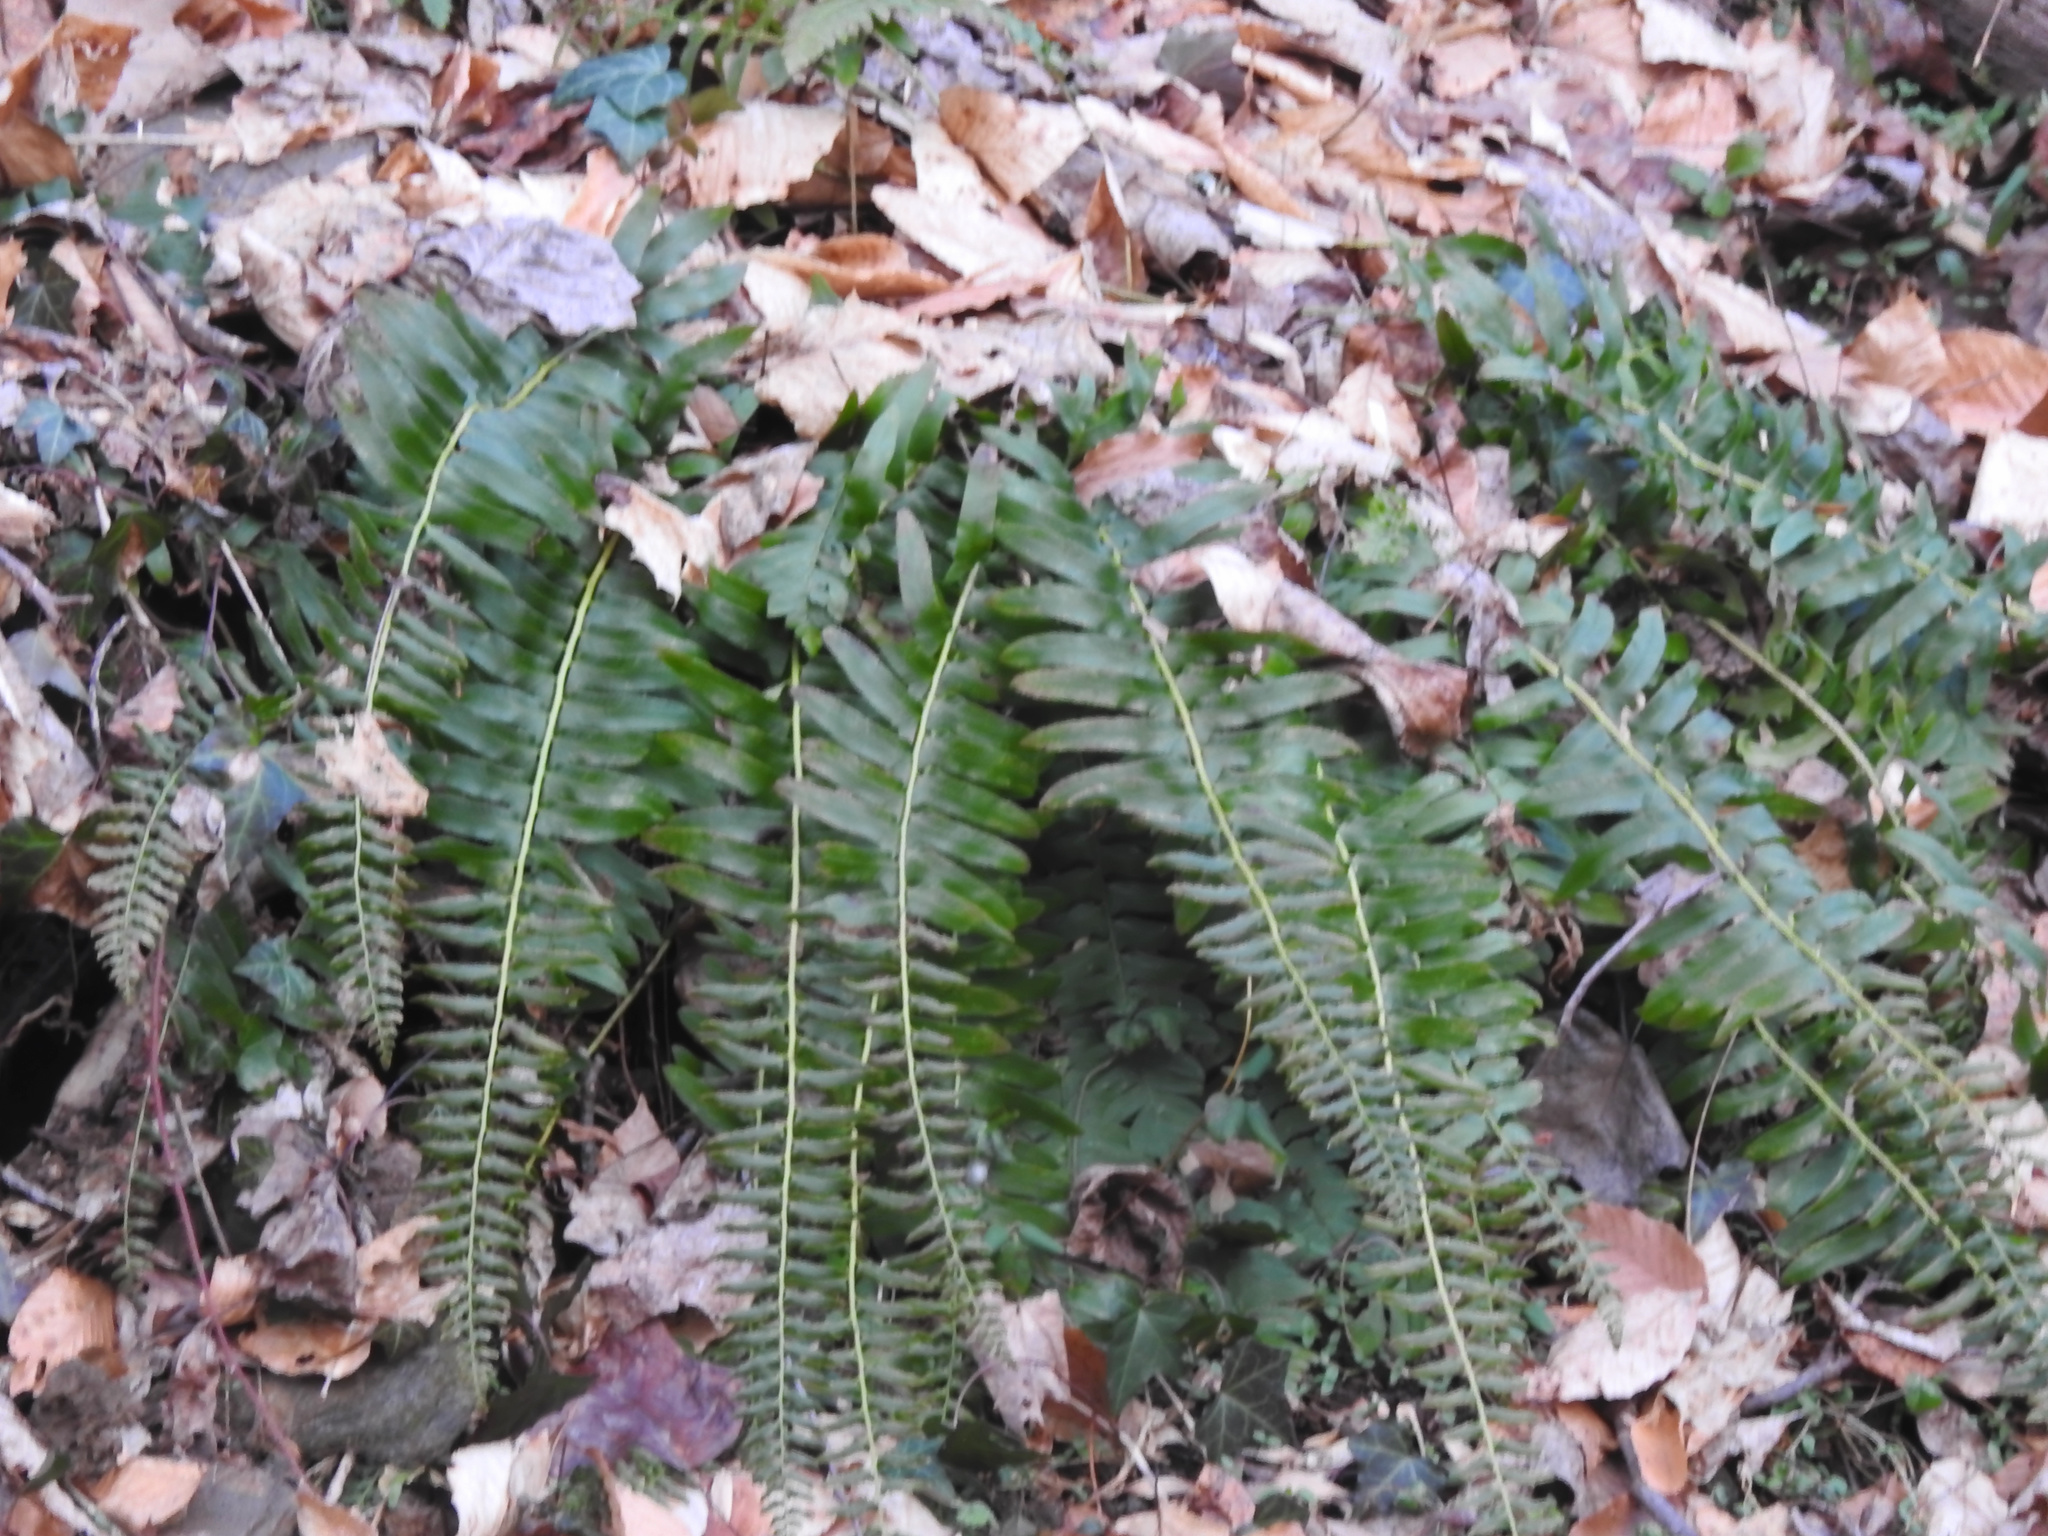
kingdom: Plantae
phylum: Tracheophyta
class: Polypodiopsida
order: Polypodiales
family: Dryopteridaceae
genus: Polystichum
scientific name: Polystichum acrostichoides
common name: Christmas fern
